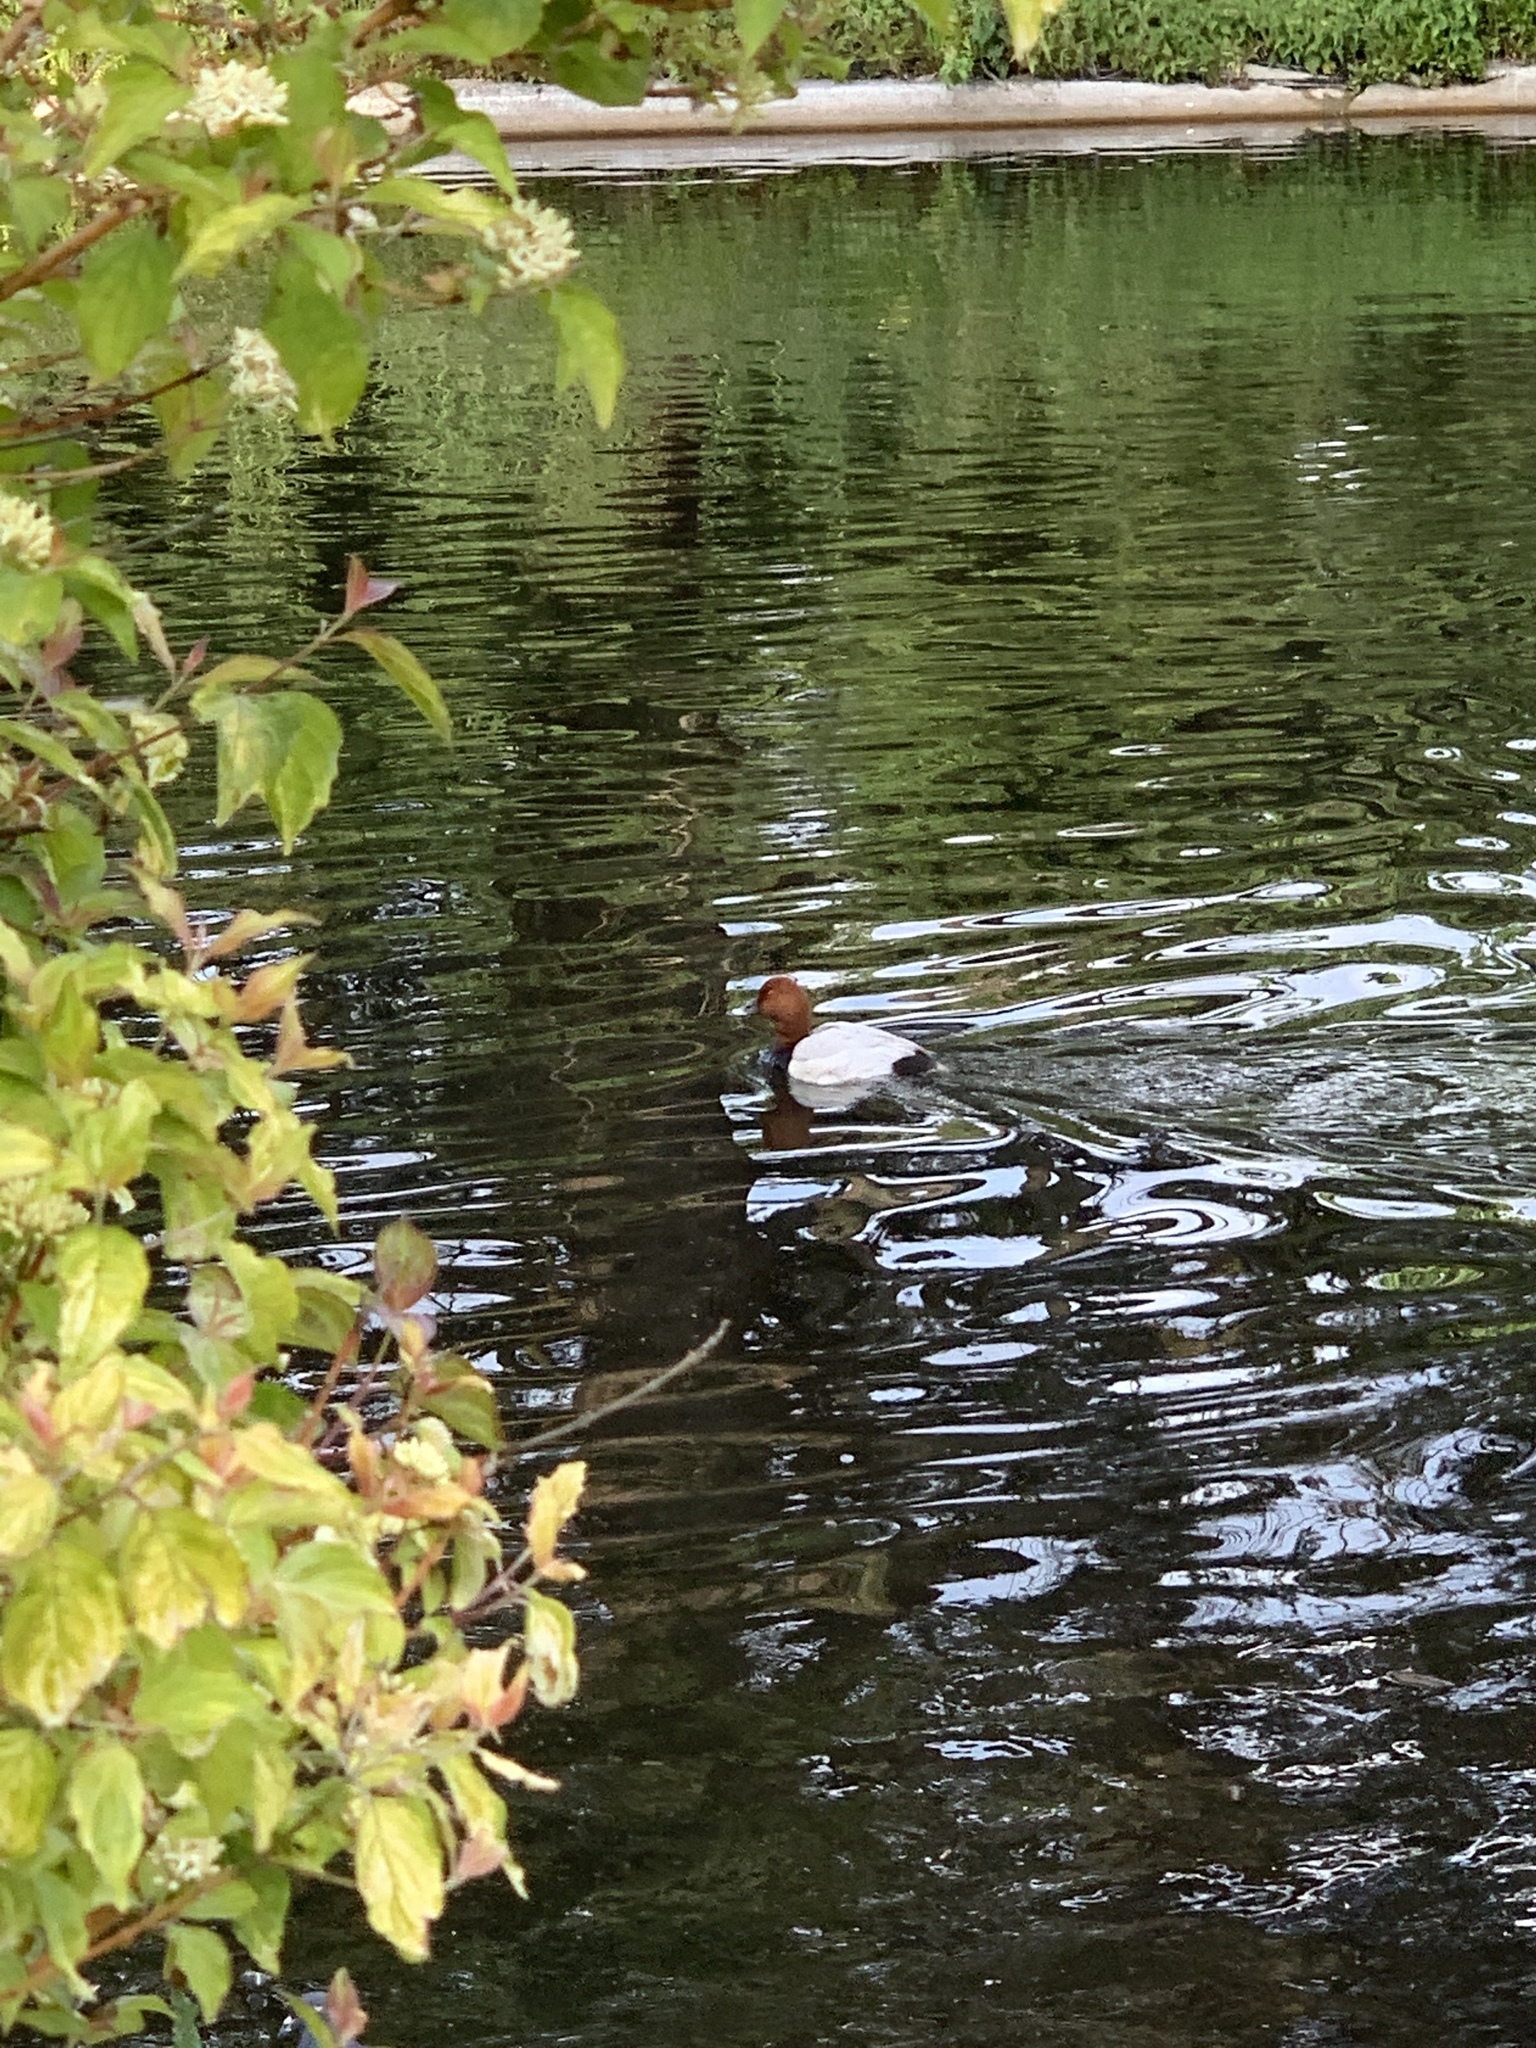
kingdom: Animalia
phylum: Chordata
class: Aves
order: Anseriformes
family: Anatidae
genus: Aythya
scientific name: Aythya ferina
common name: Common pochard
